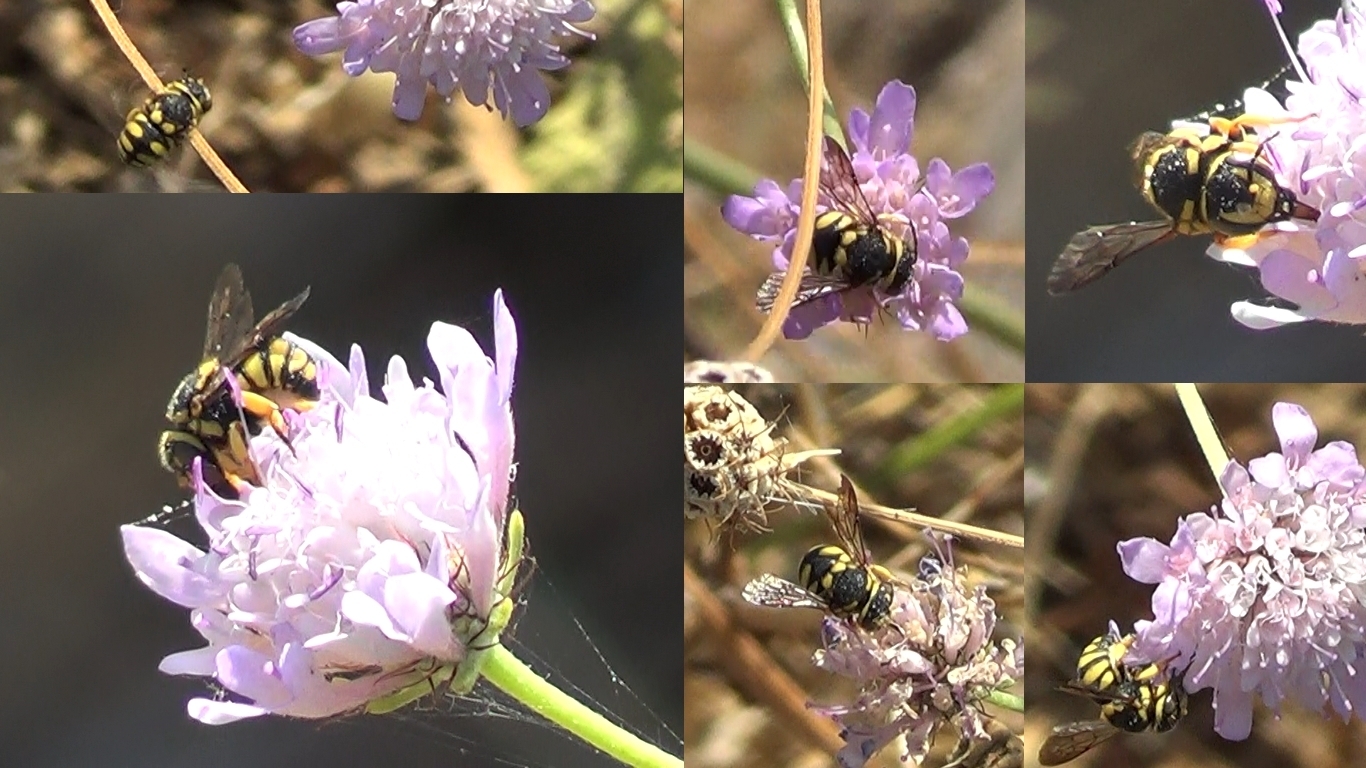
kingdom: Animalia
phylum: Arthropoda
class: Insecta
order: Hymenoptera
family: Megachilidae
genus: Anthidiellum
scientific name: Anthidiellum strigatum
